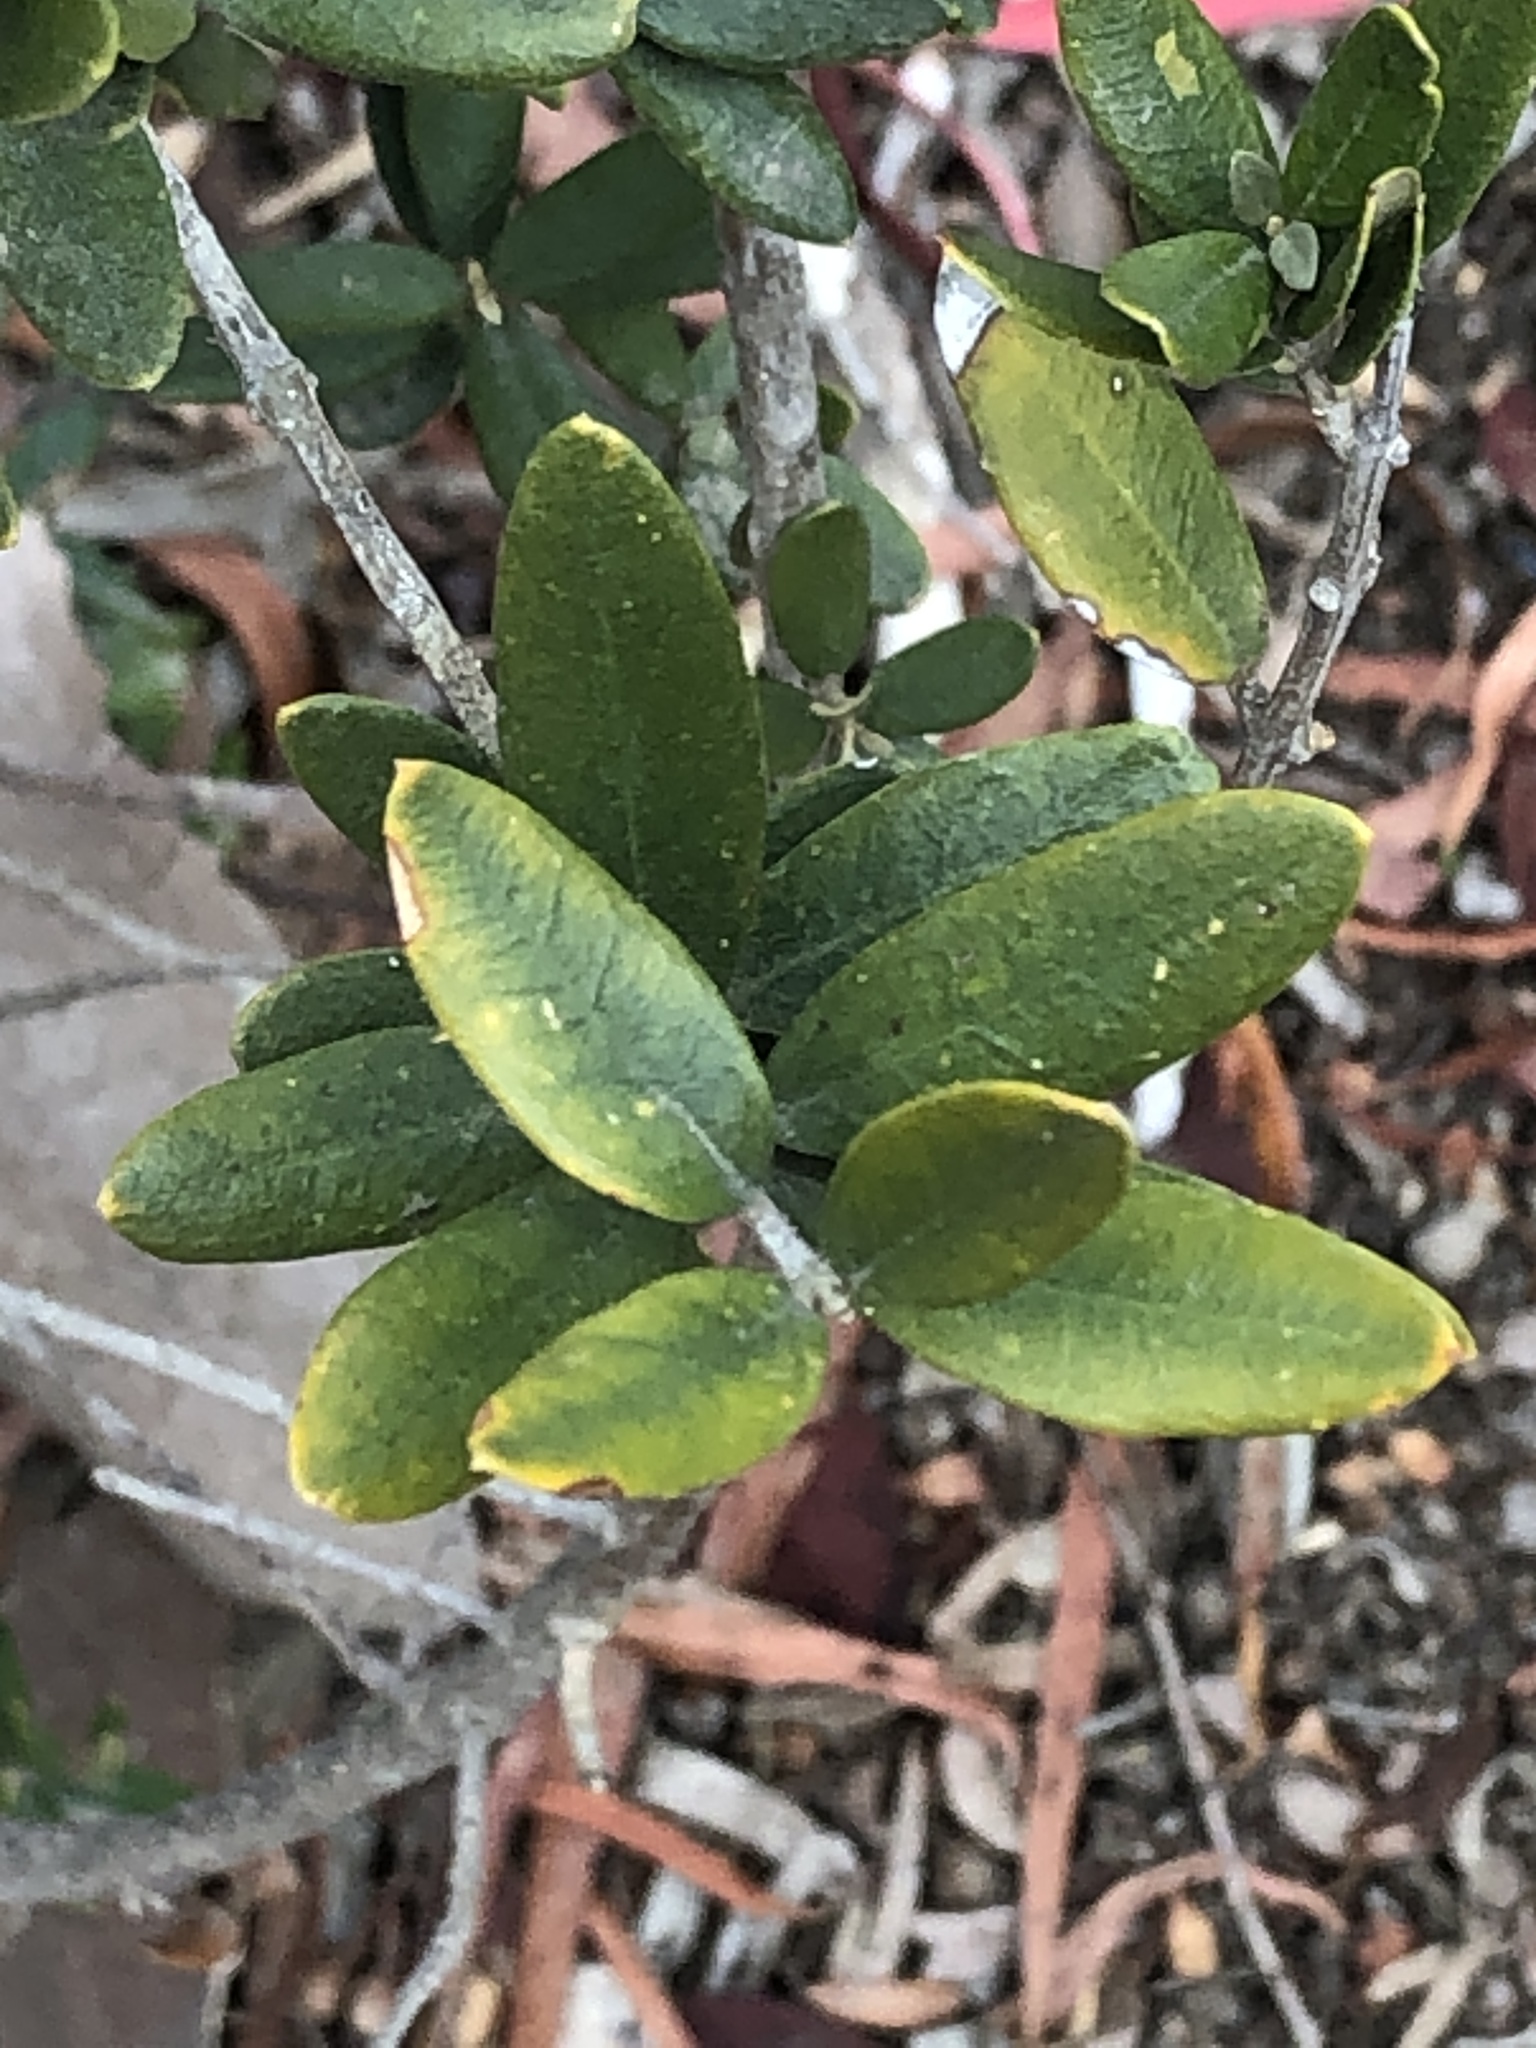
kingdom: Plantae
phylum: Tracheophyta
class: Magnoliopsida
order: Lamiales
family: Oleaceae
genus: Olea
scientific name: Olea europaea
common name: Olive
